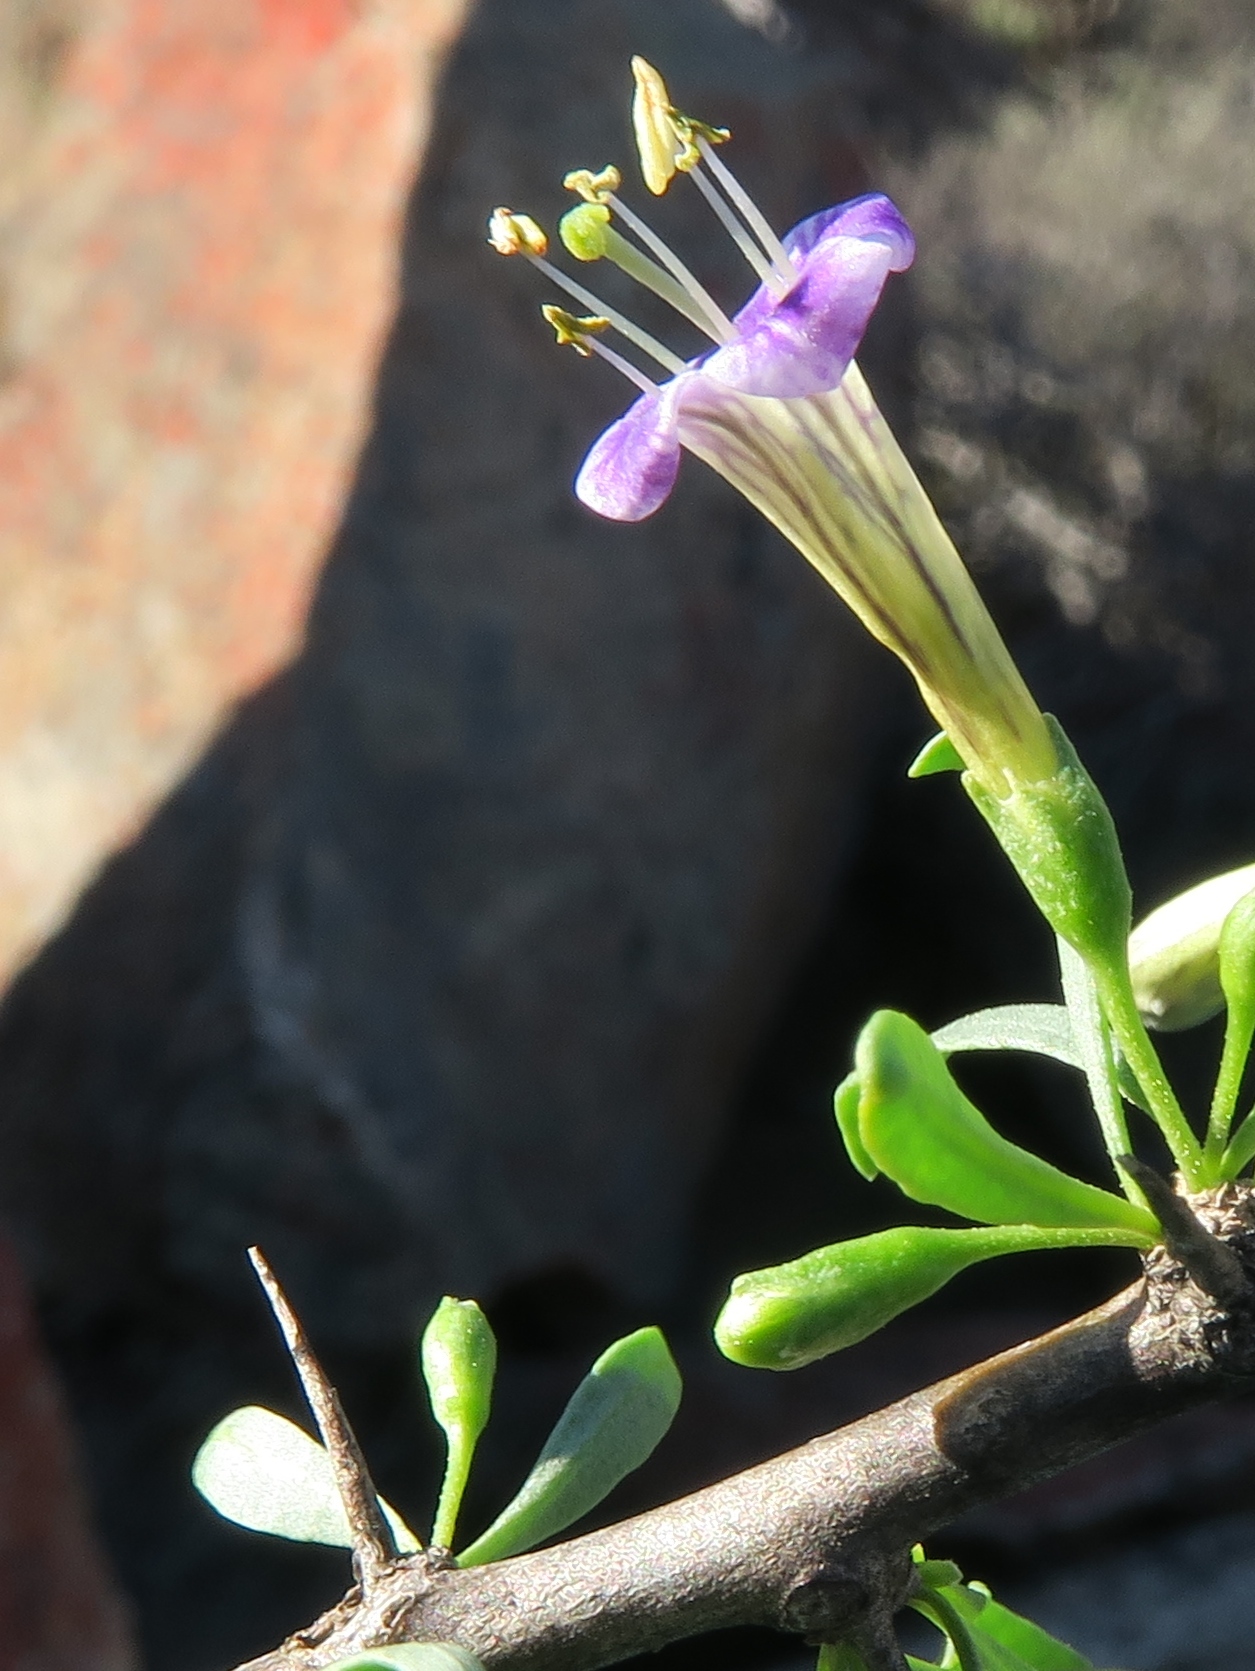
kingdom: Plantae
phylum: Tracheophyta
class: Magnoliopsida
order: Solanales
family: Solanaceae
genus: Lycium
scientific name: Lycium bosciifolium
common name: Limpopo honey-thorn
